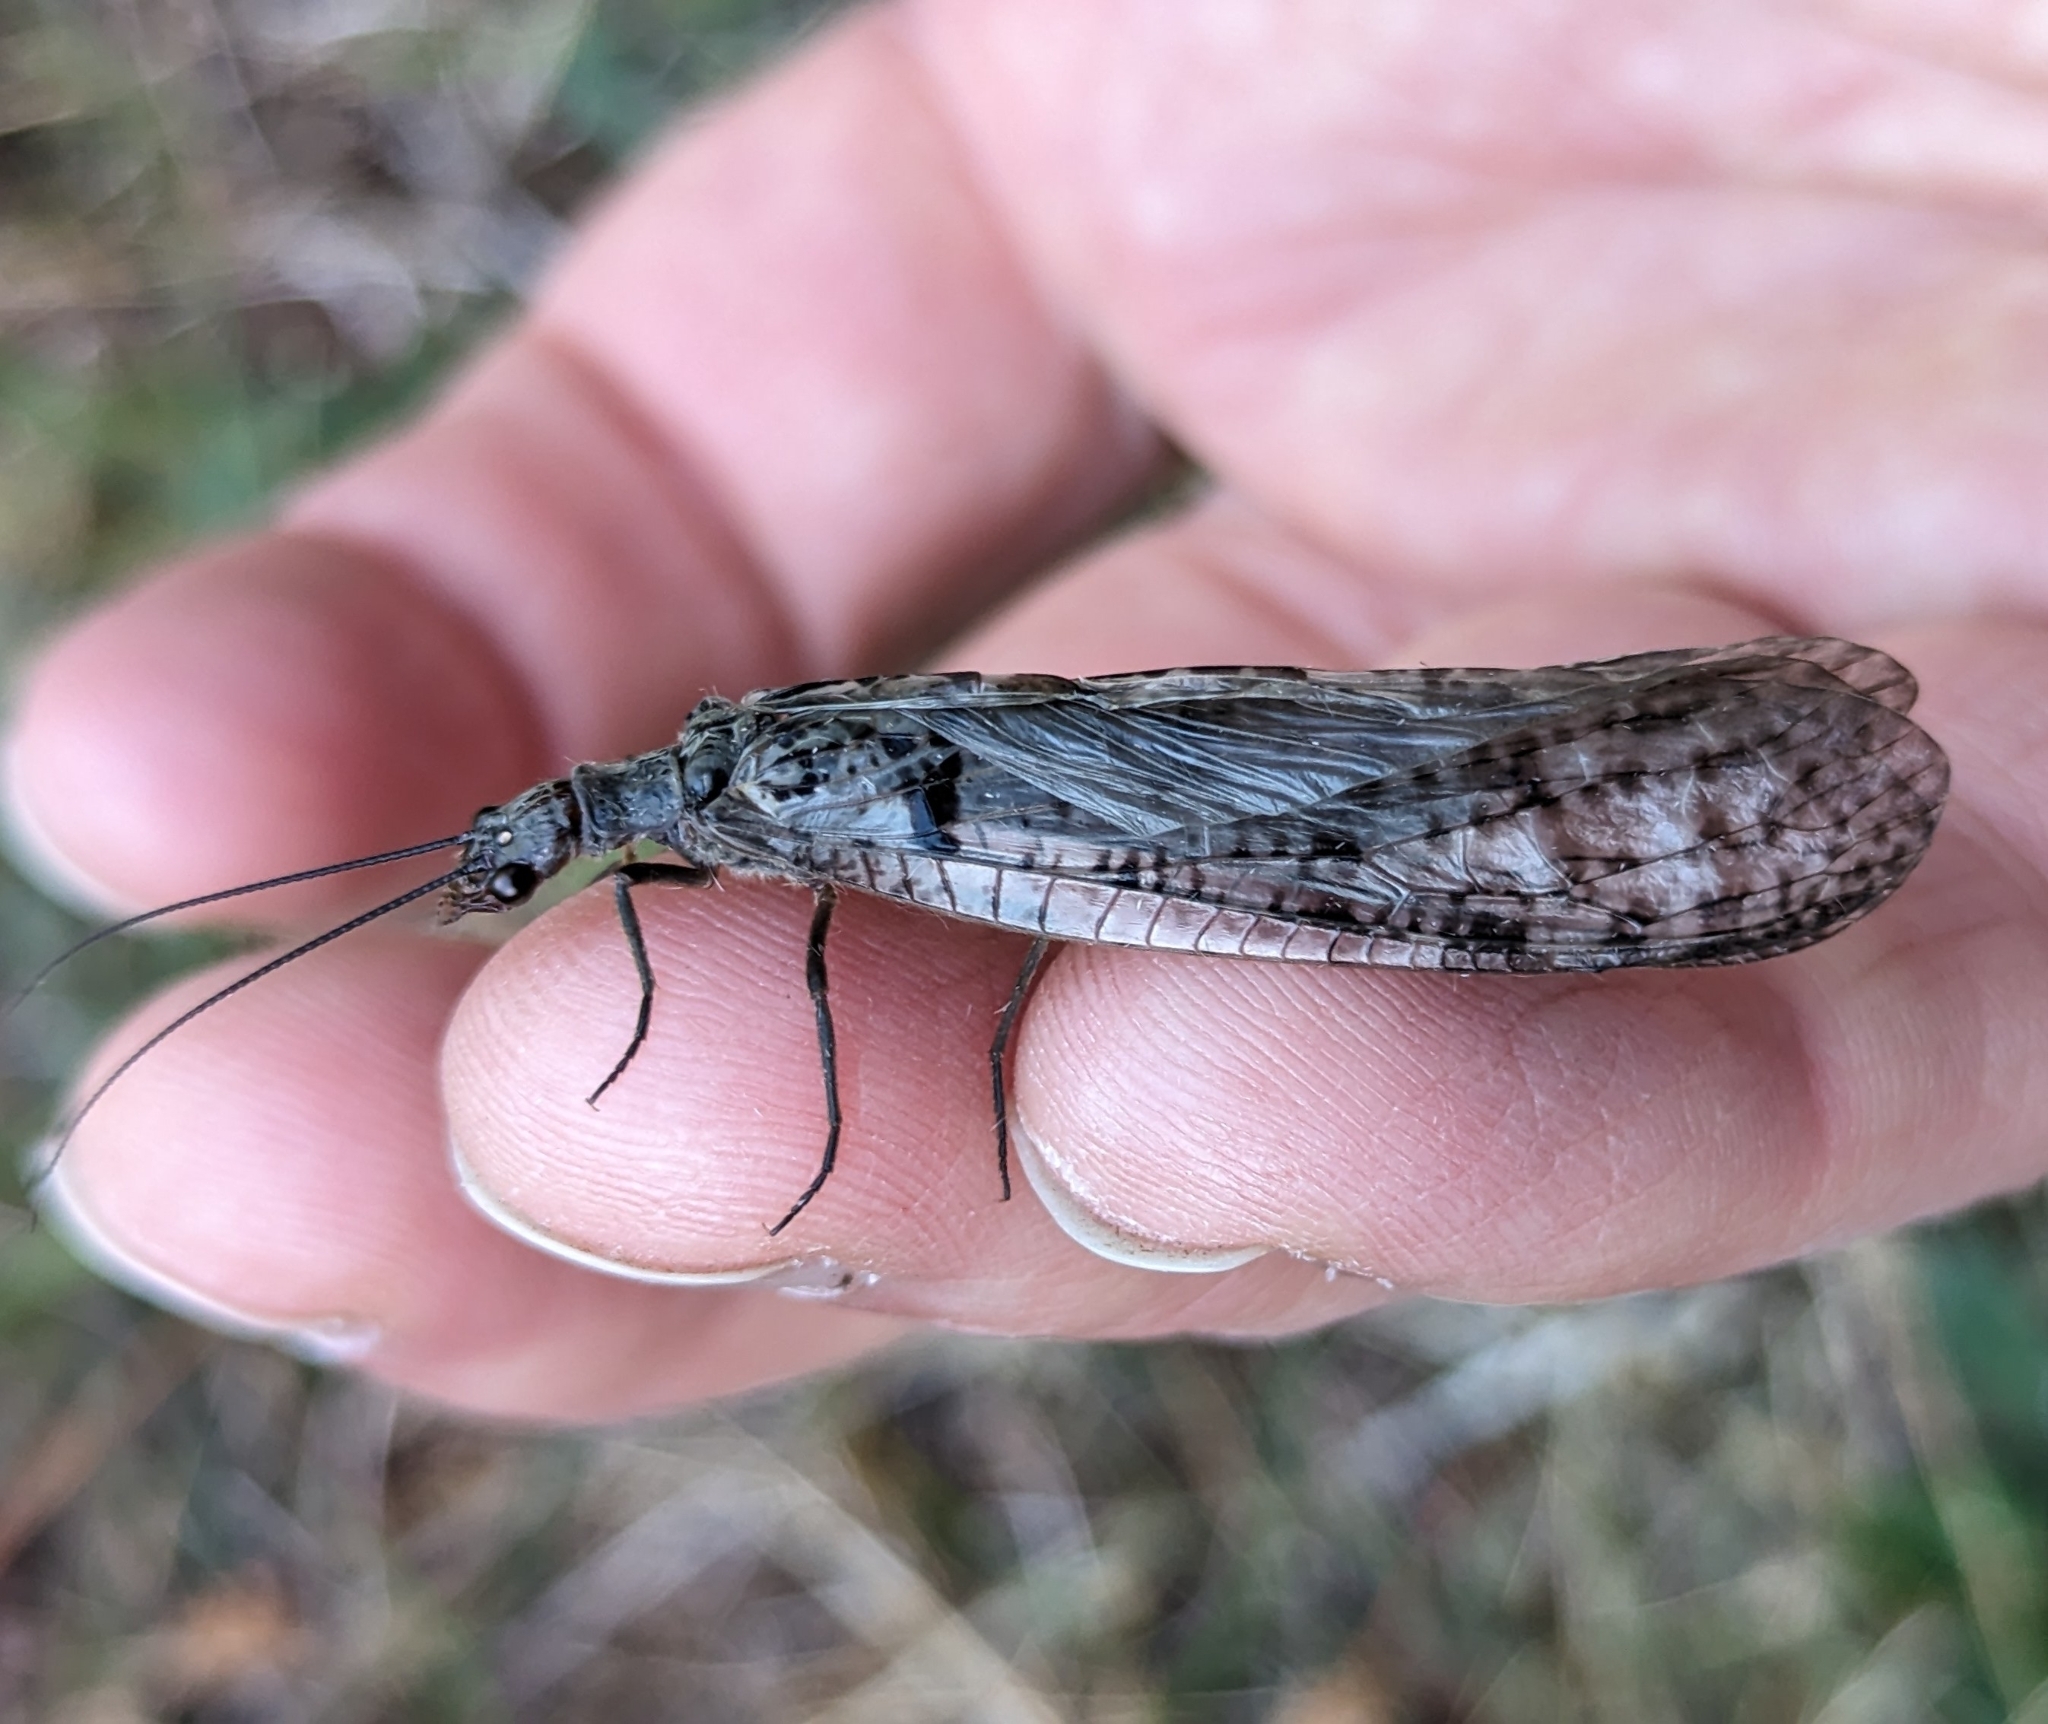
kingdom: Animalia
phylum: Arthropoda
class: Insecta
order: Megaloptera
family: Corydalidae
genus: Protochauliodes
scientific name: Protochauliodes spenceri
